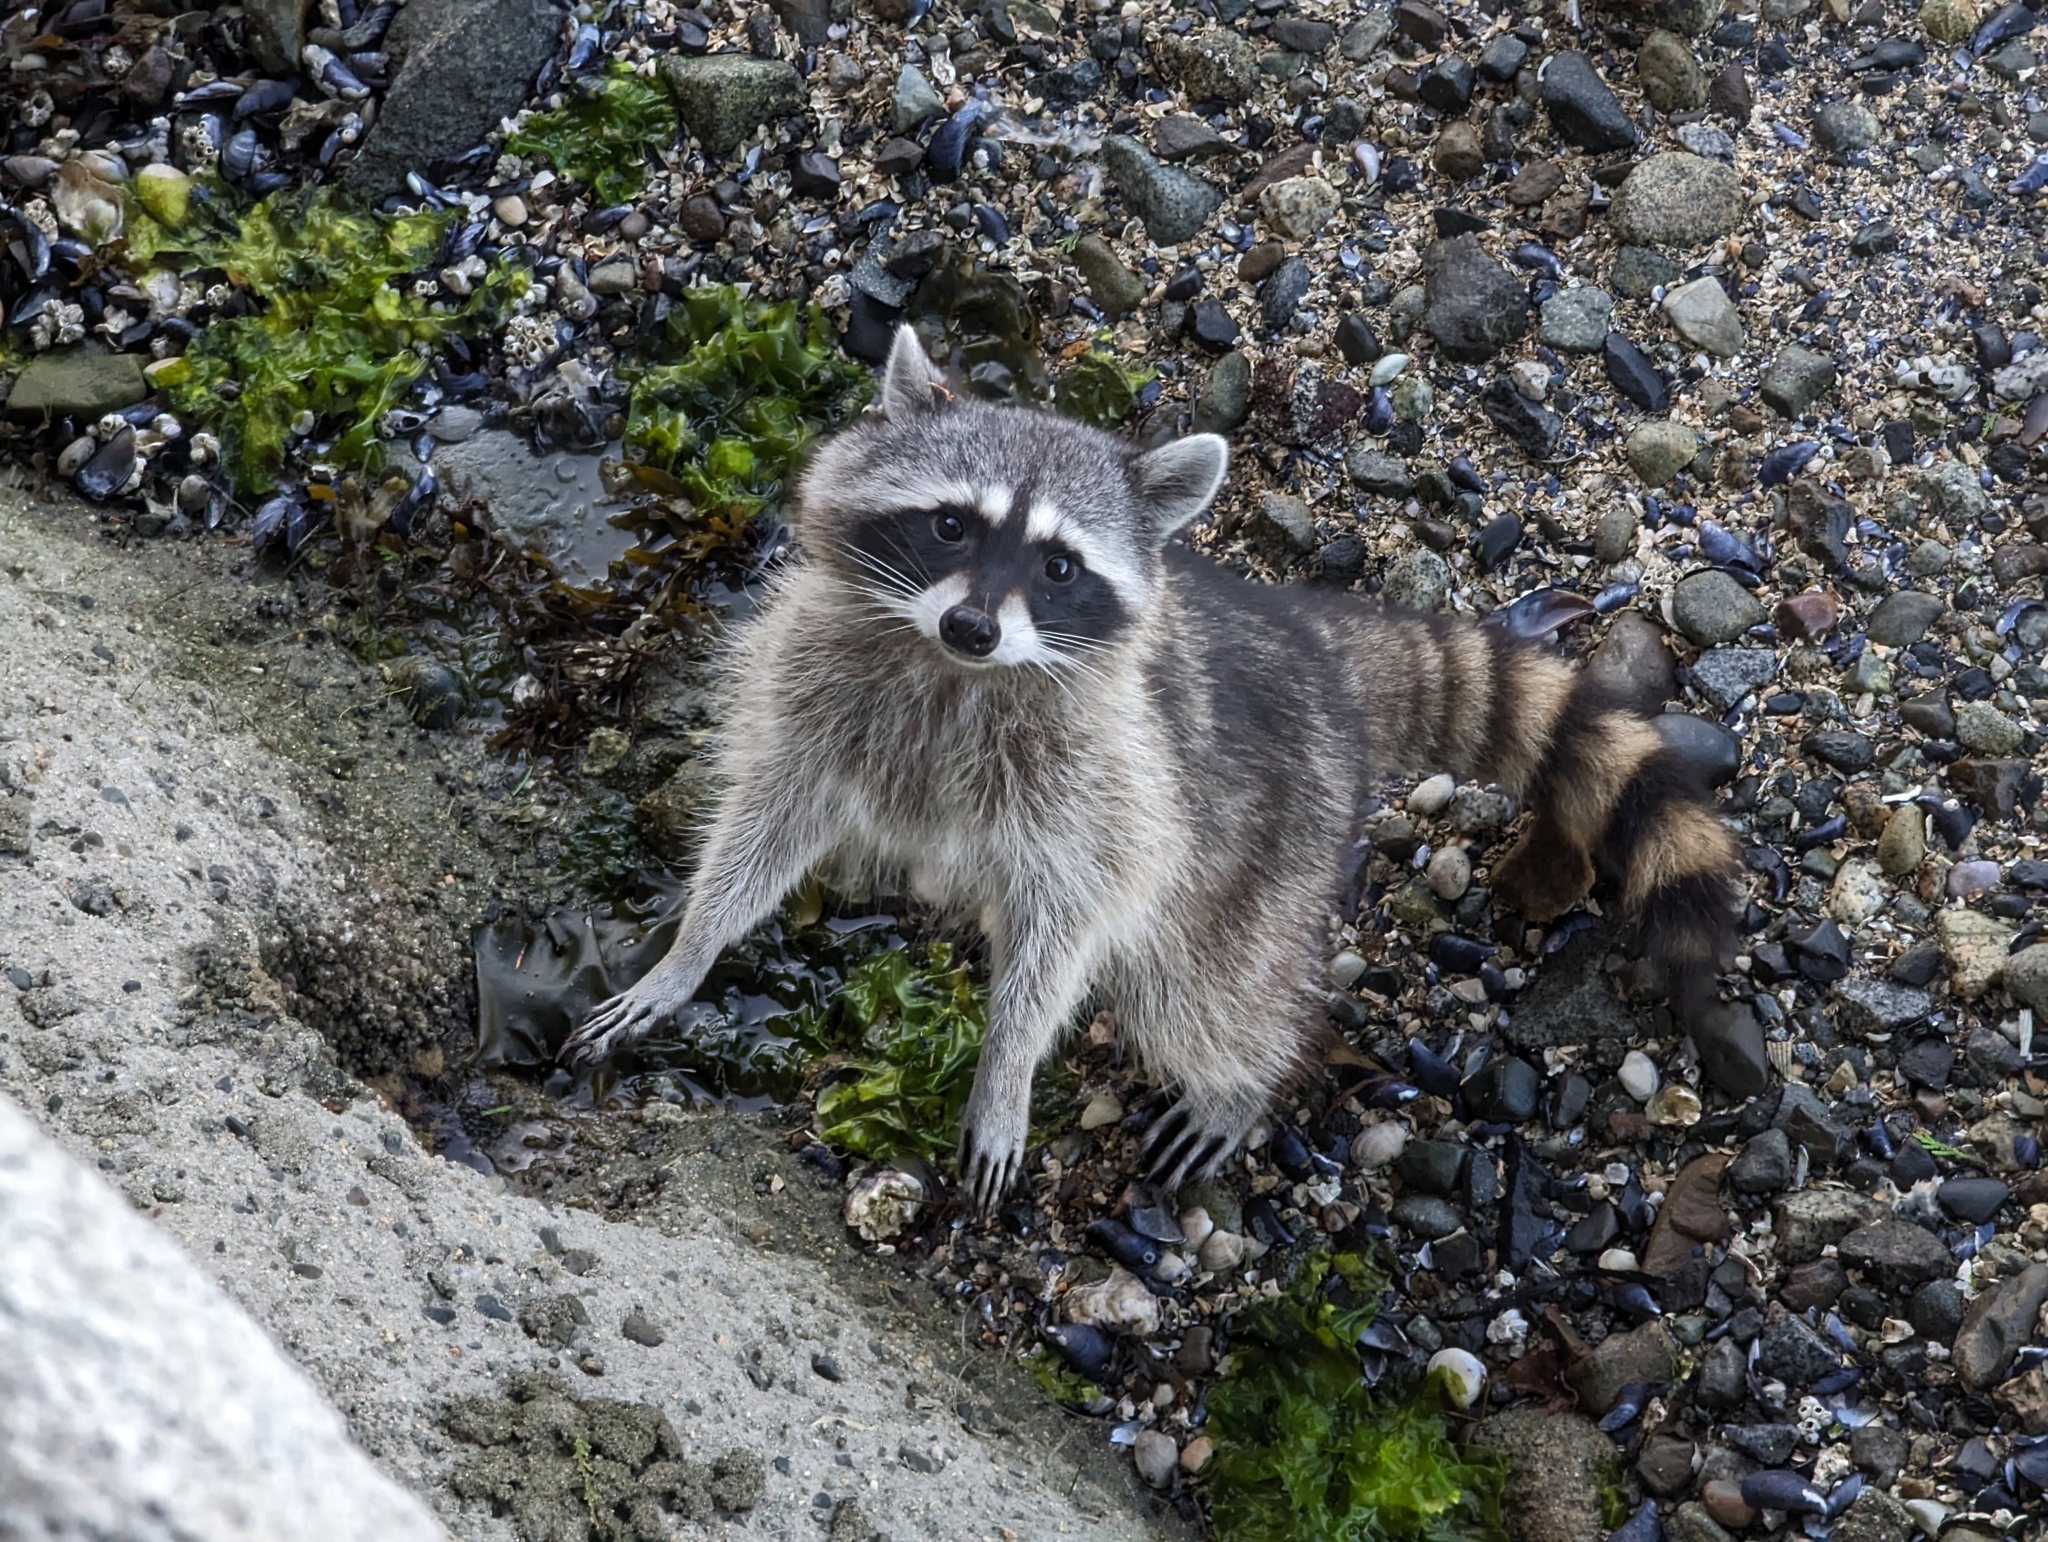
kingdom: Animalia
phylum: Chordata
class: Mammalia
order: Carnivora
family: Procyonidae
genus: Procyon
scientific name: Procyon lotor
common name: Raccoon
